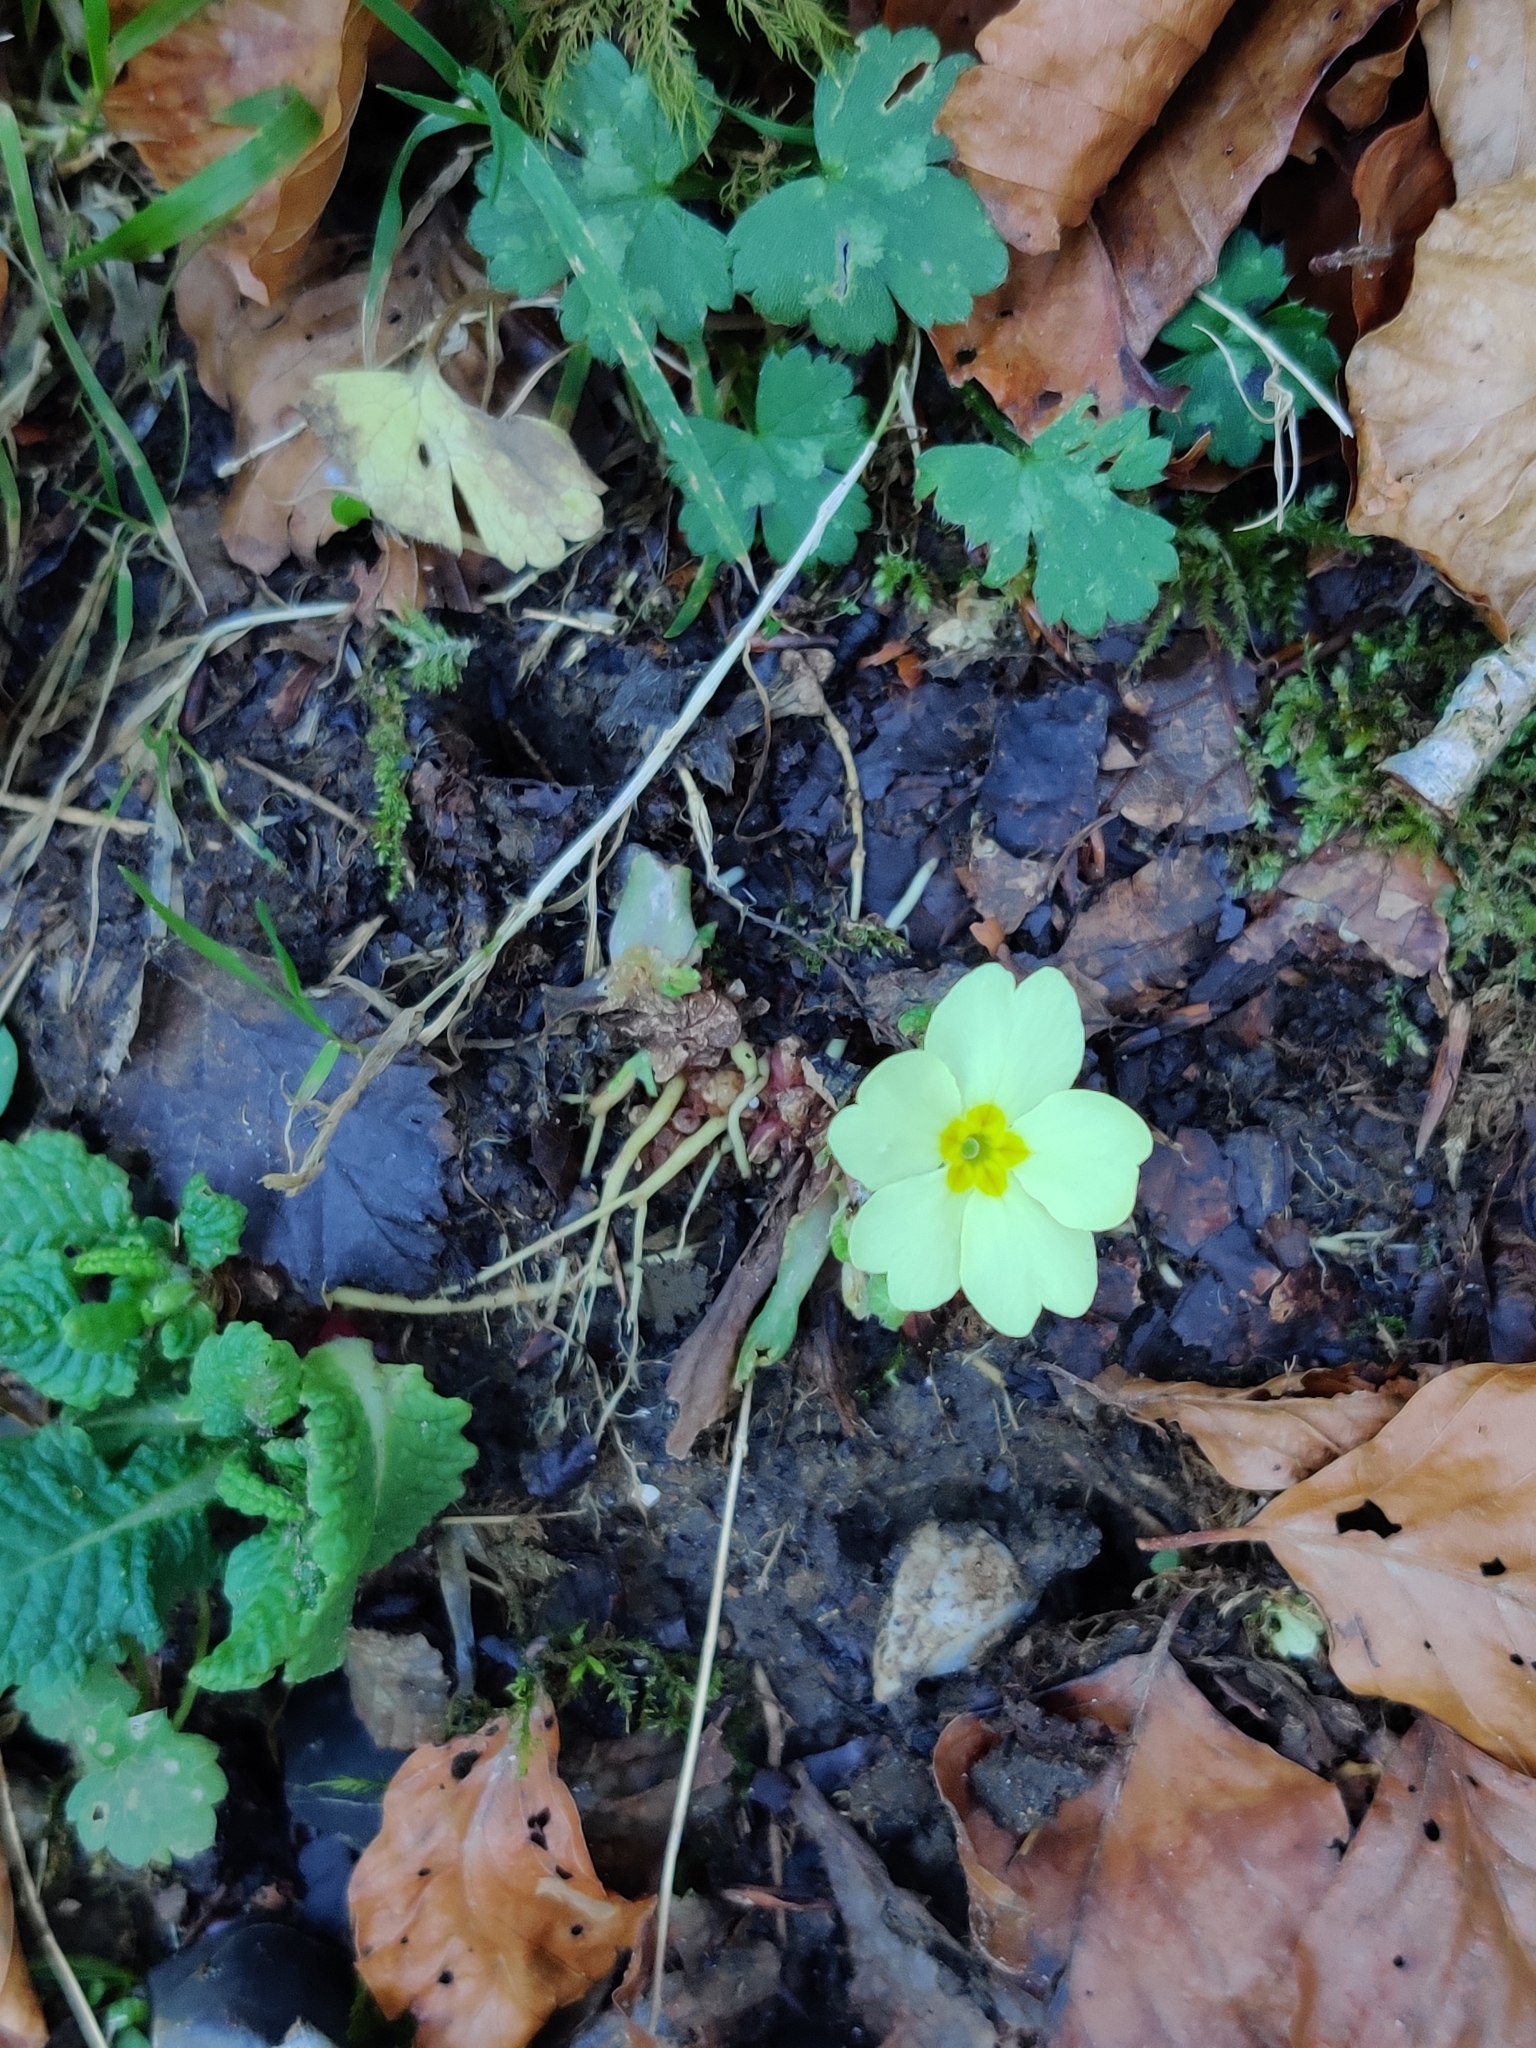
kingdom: Plantae
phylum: Tracheophyta
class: Magnoliopsida
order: Ericales
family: Primulaceae
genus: Primula
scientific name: Primula vulgaris
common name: Primrose
